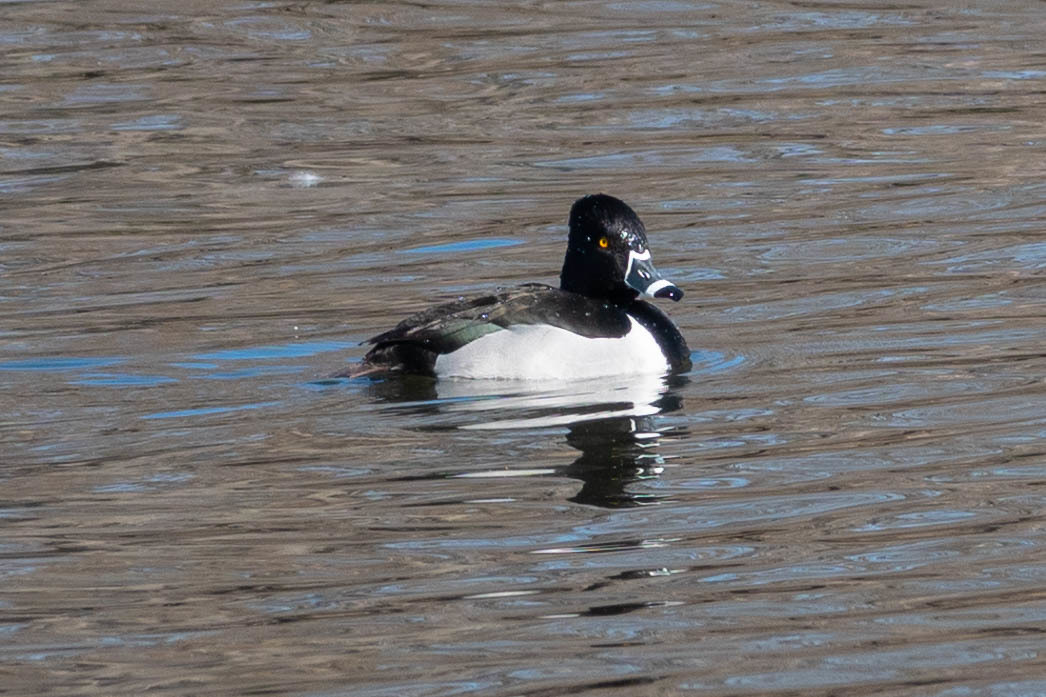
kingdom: Animalia
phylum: Chordata
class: Aves
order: Anseriformes
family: Anatidae
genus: Aythya
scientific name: Aythya collaris
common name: Ring-necked duck
